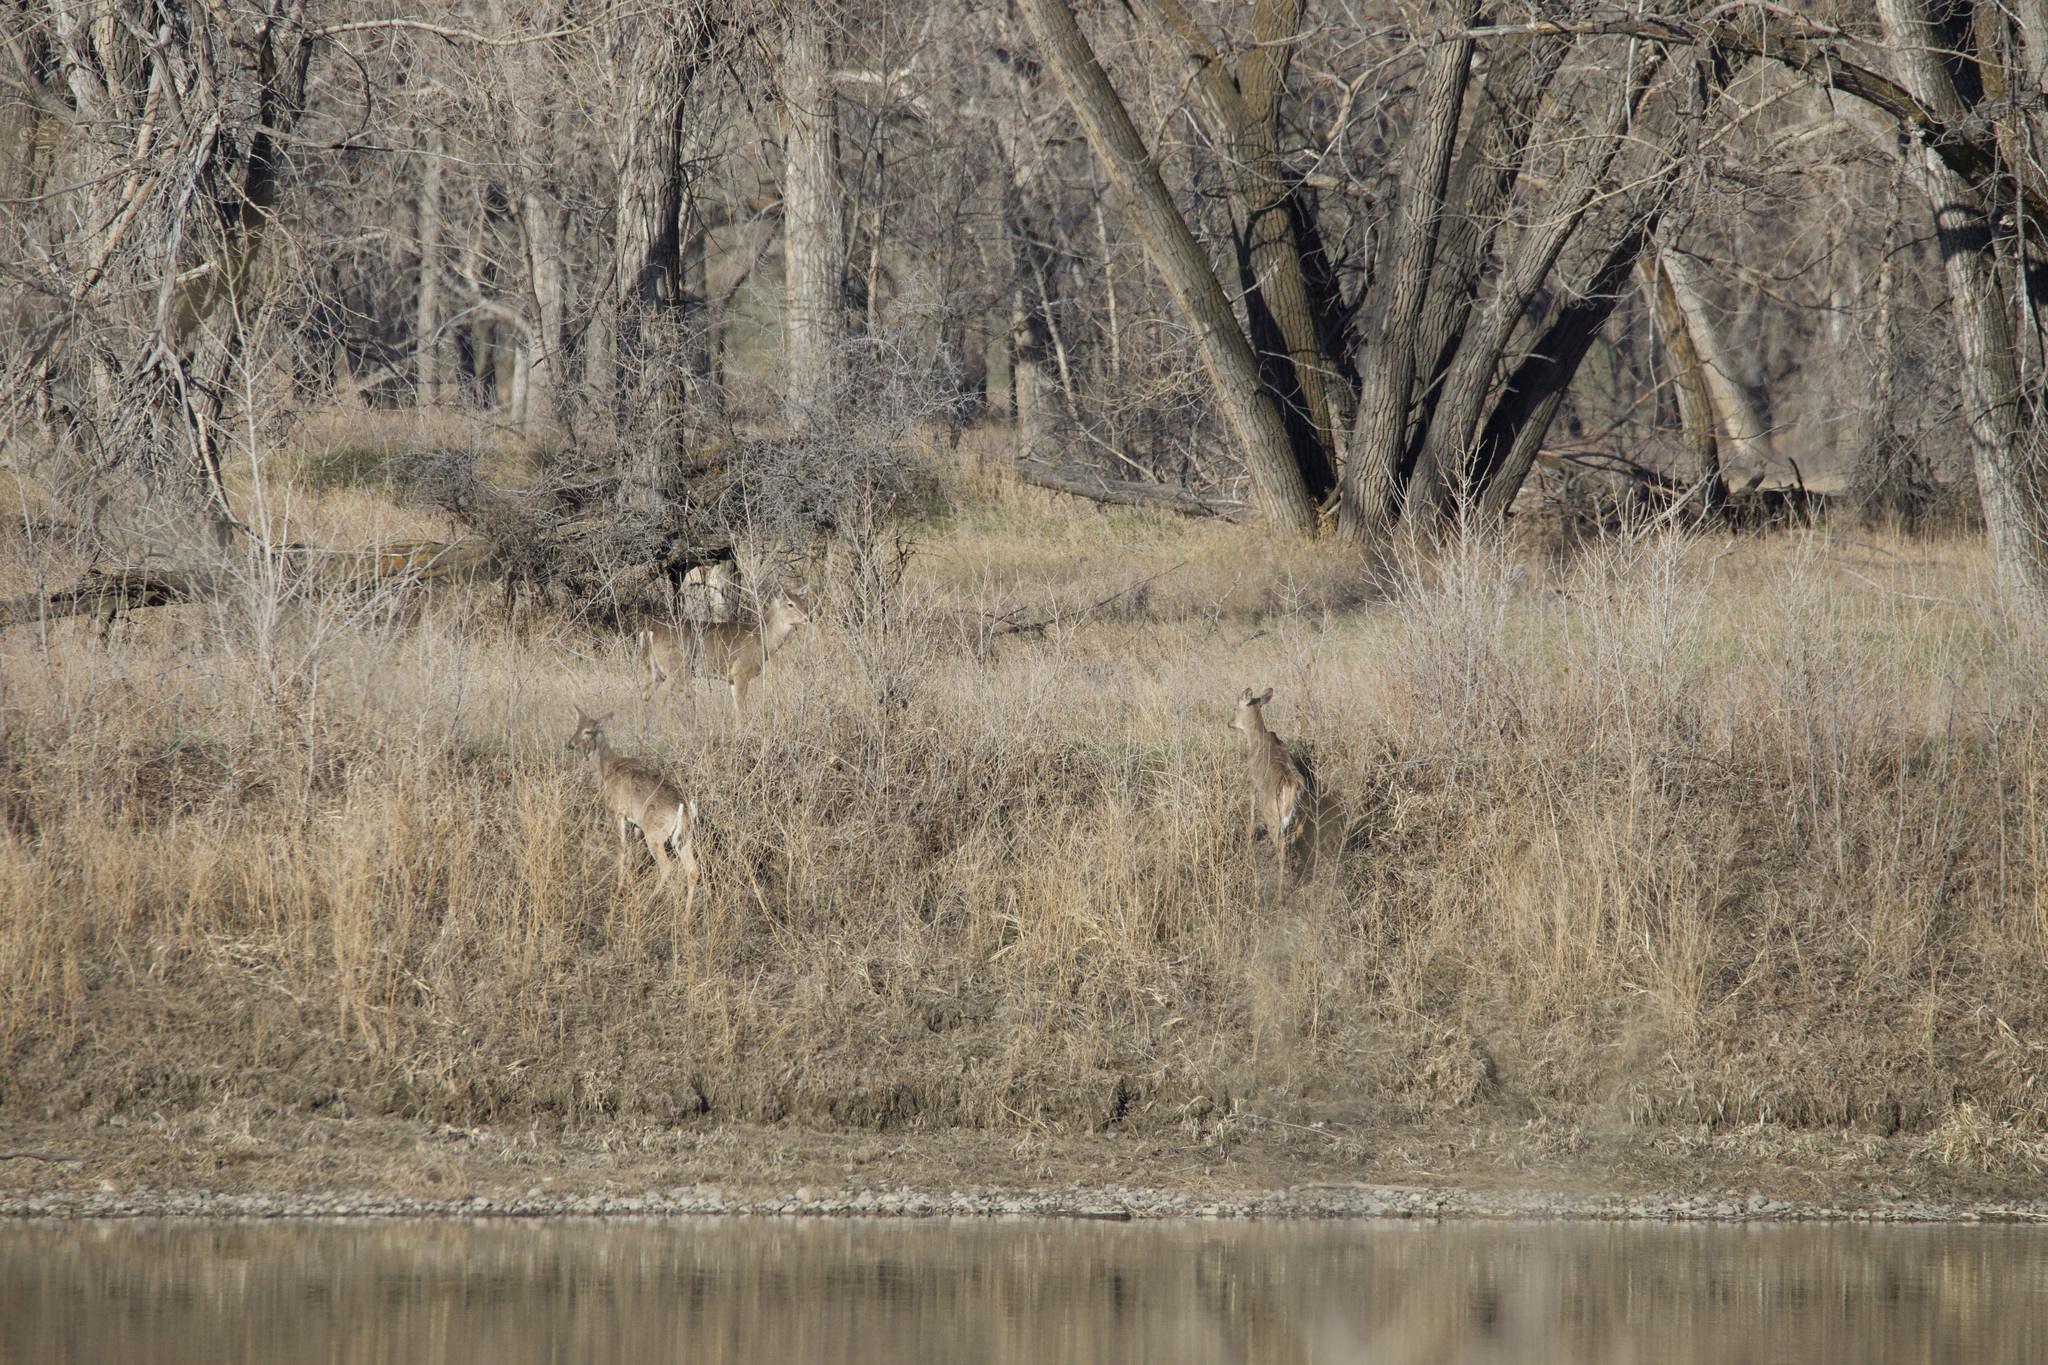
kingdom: Animalia
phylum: Chordata
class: Mammalia
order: Artiodactyla
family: Cervidae
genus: Odocoileus
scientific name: Odocoileus virginianus
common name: White-tailed deer
